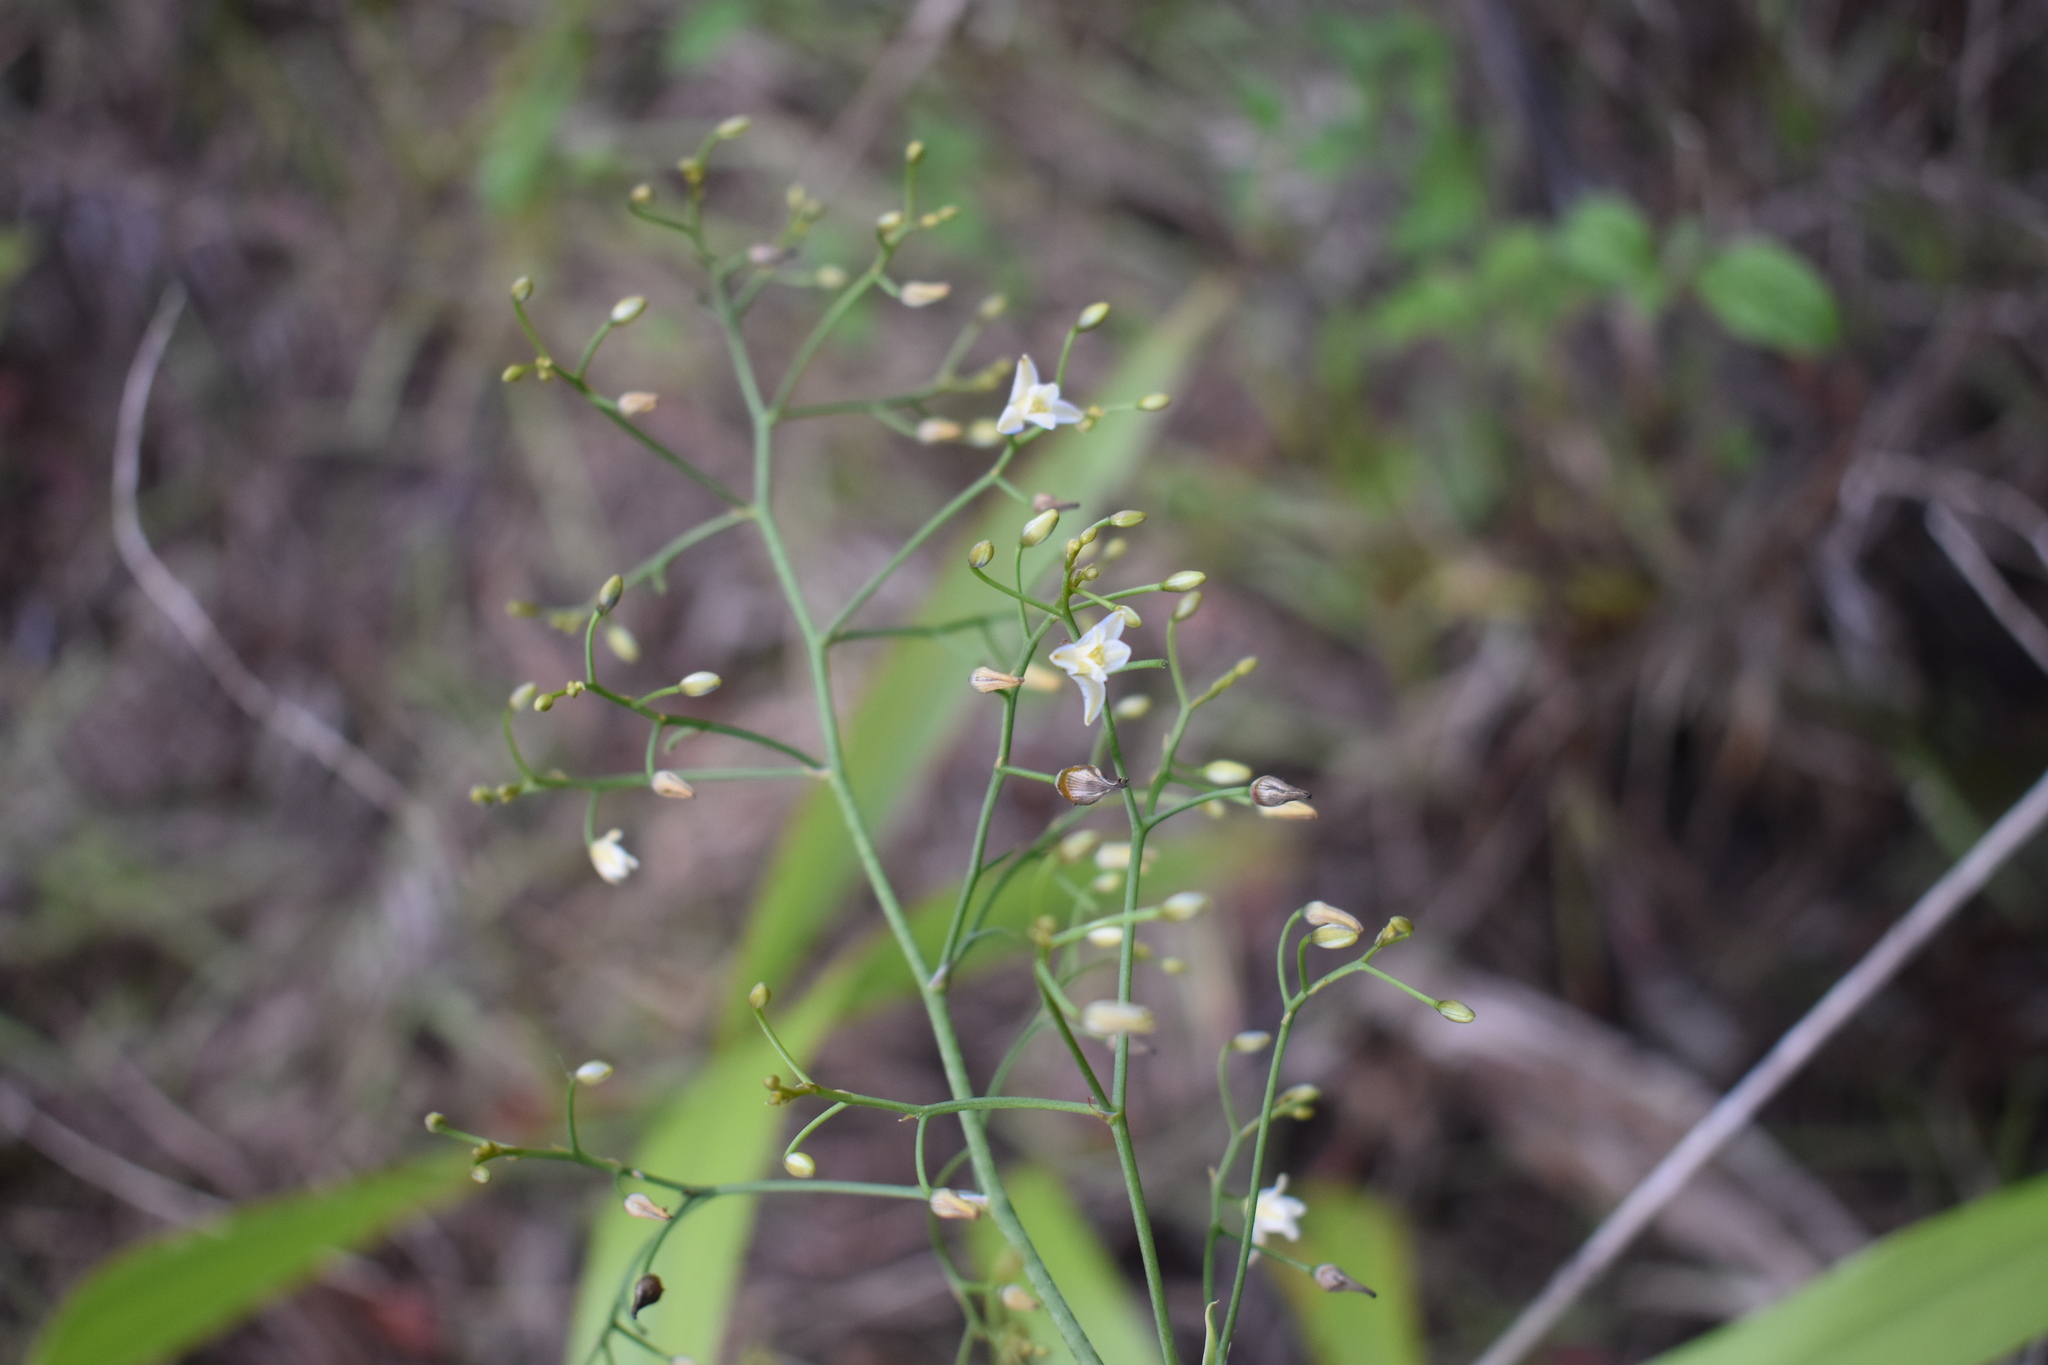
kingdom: Plantae
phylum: Tracheophyta
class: Liliopsida
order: Asparagales
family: Asphodelaceae
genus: Dianella
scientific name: Dianella sandwicensis
